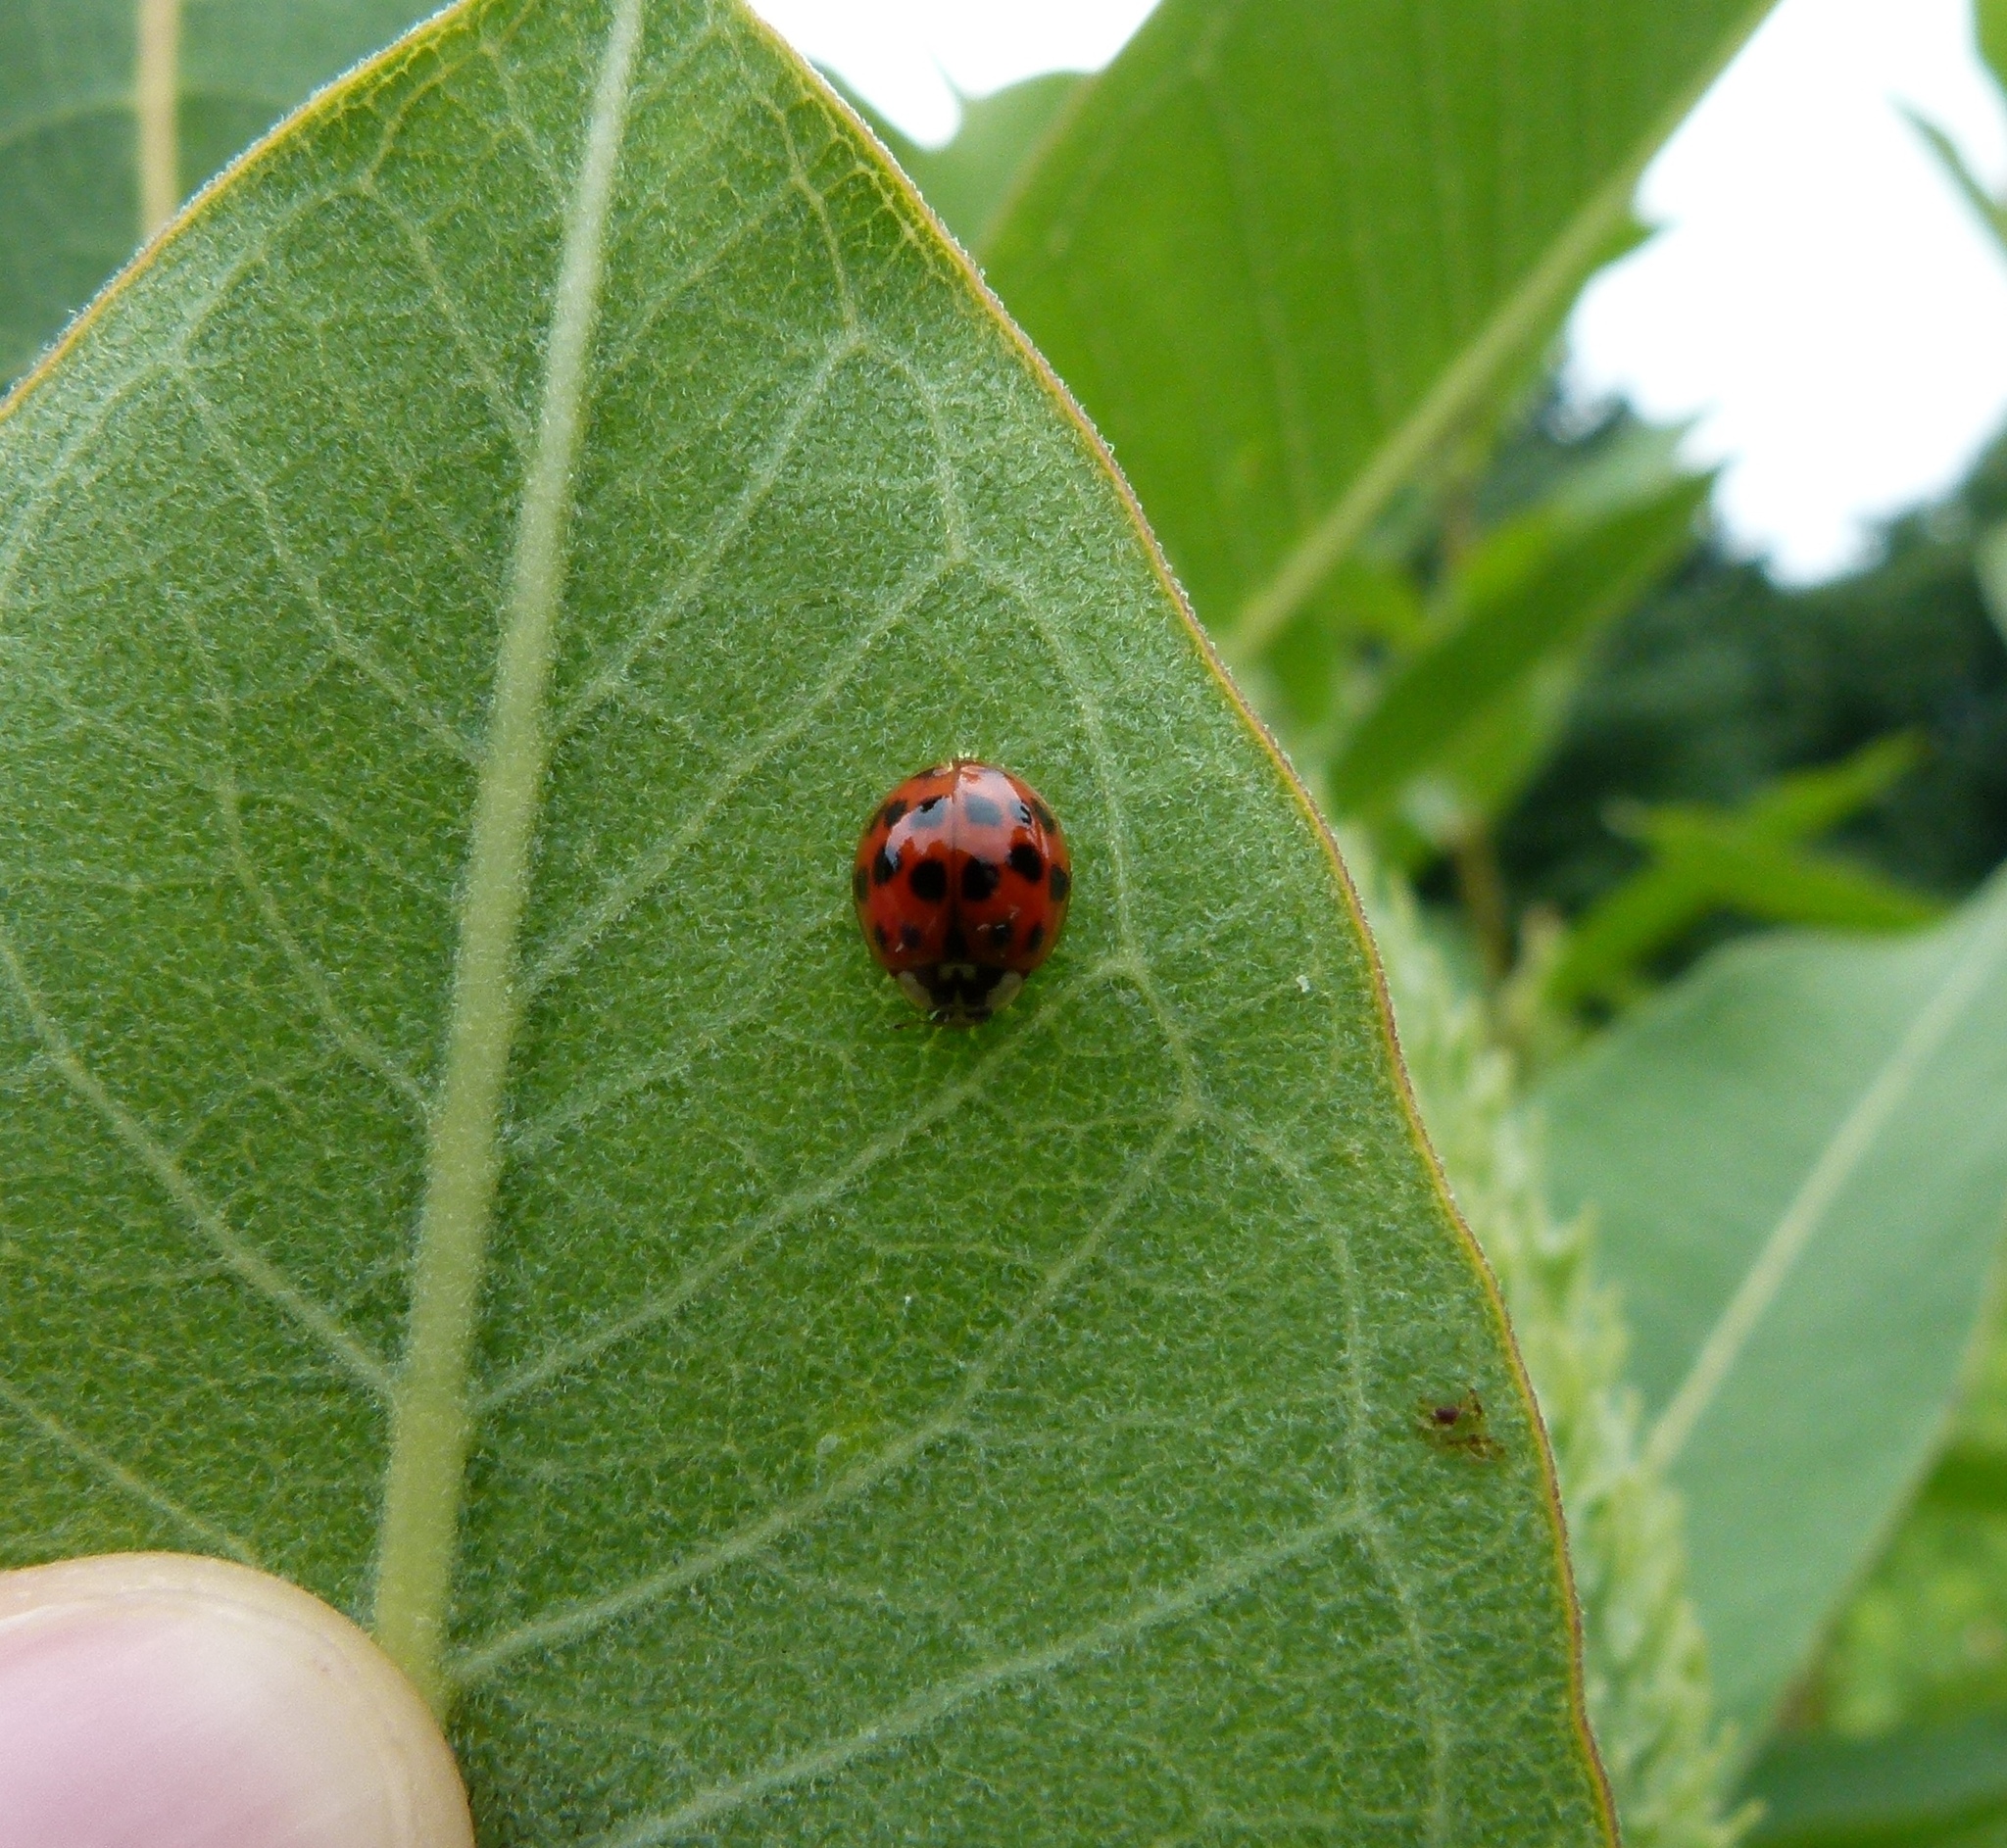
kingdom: Animalia
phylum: Arthropoda
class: Insecta
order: Coleoptera
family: Coccinellidae
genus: Harmonia
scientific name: Harmonia axyridis
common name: Harlequin ladybird
